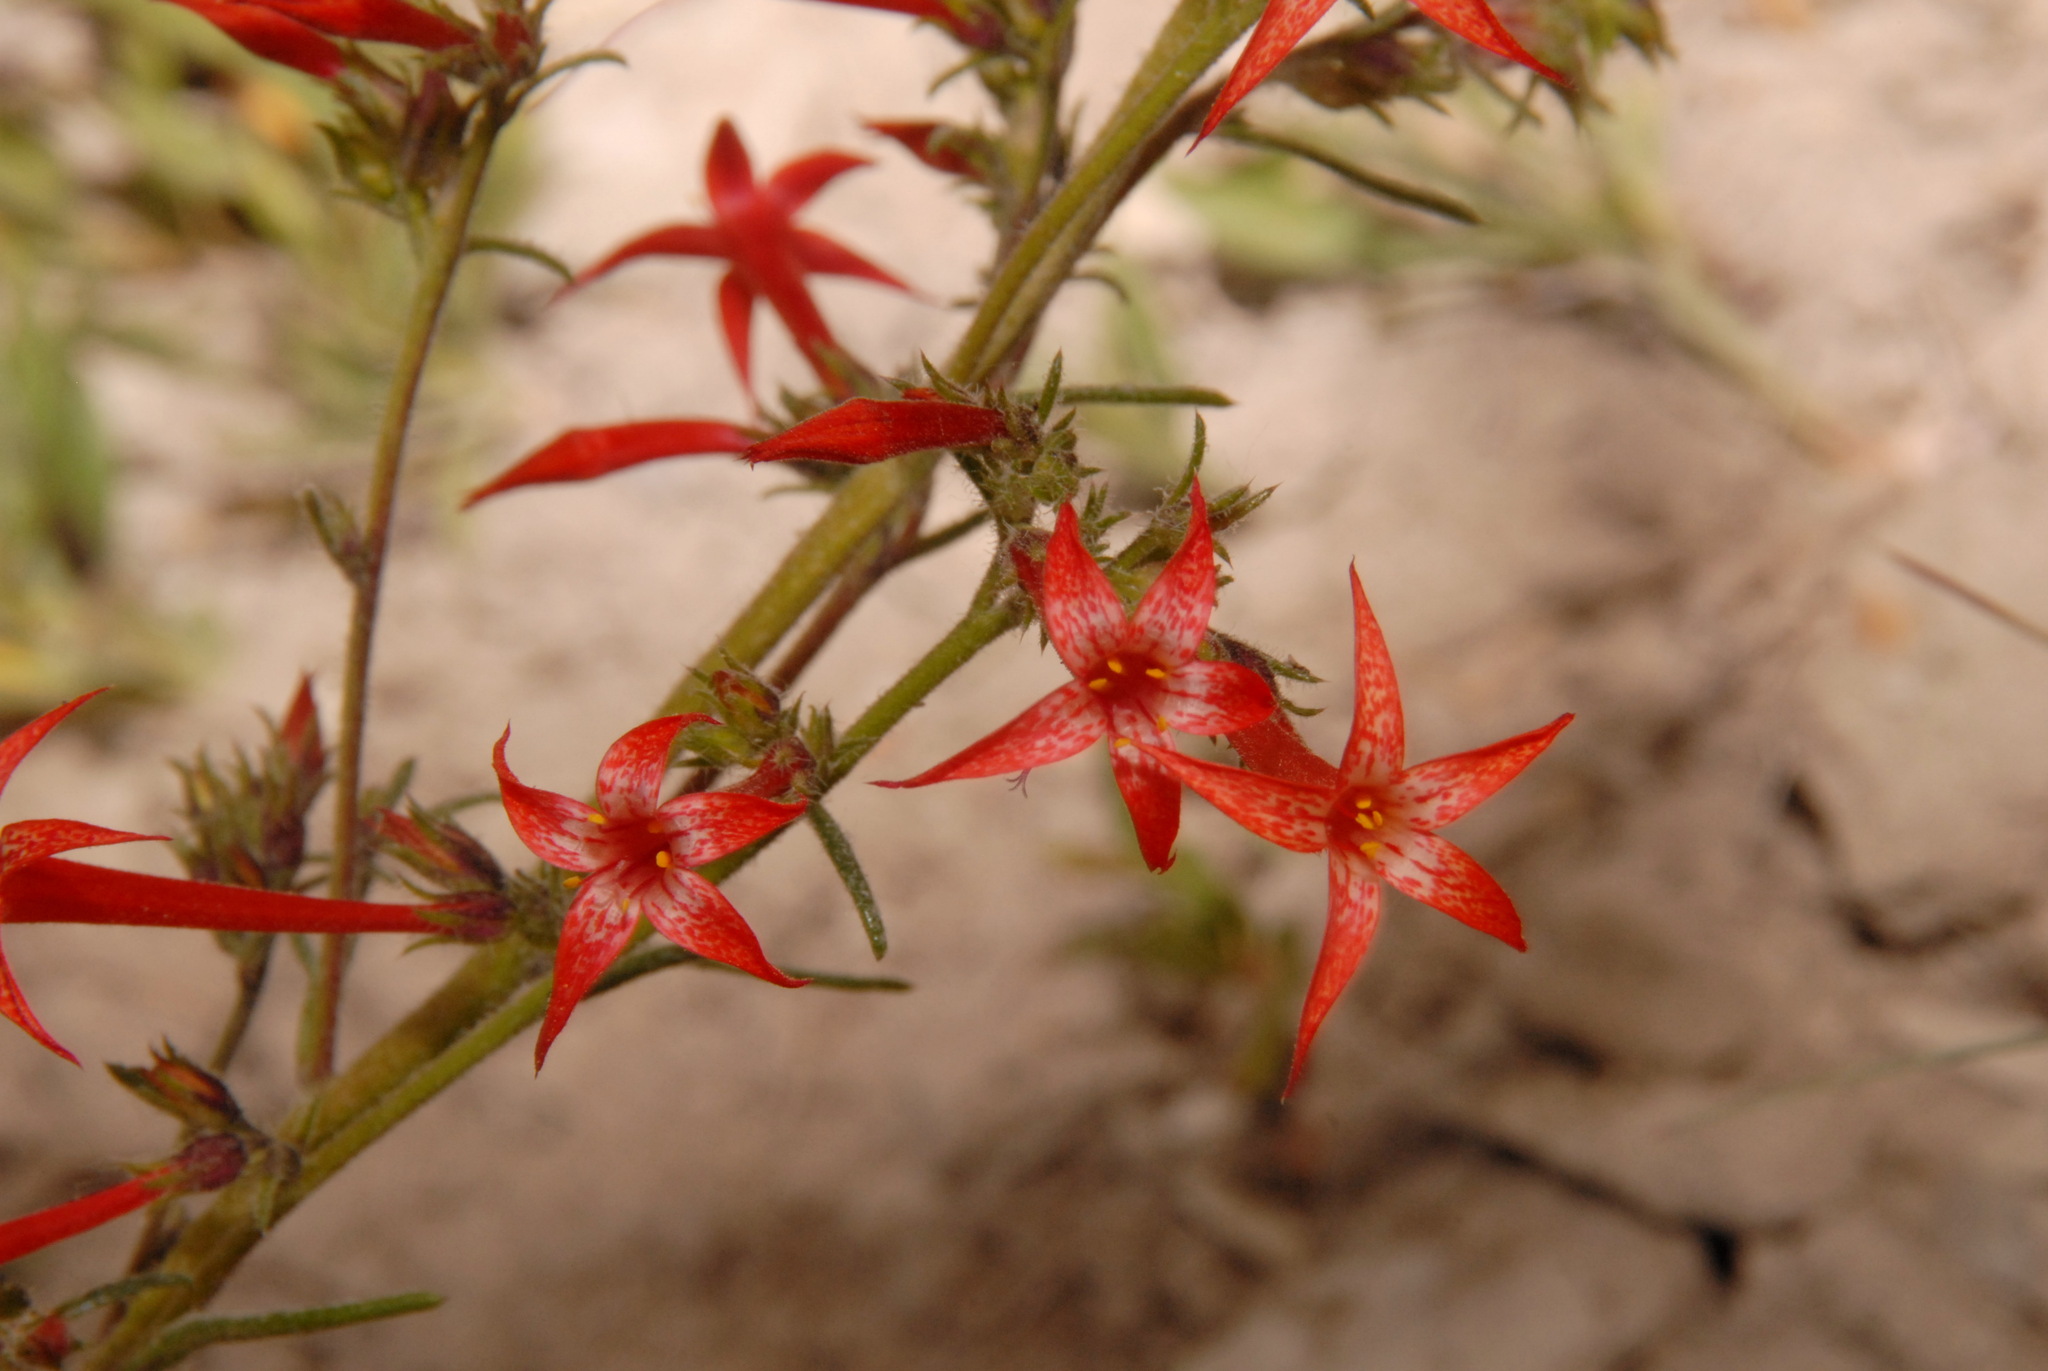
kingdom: Plantae
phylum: Tracheophyta
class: Magnoliopsida
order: Ericales
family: Polemoniaceae
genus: Ipomopsis
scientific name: Ipomopsis aggregata
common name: Scarlet gilia
